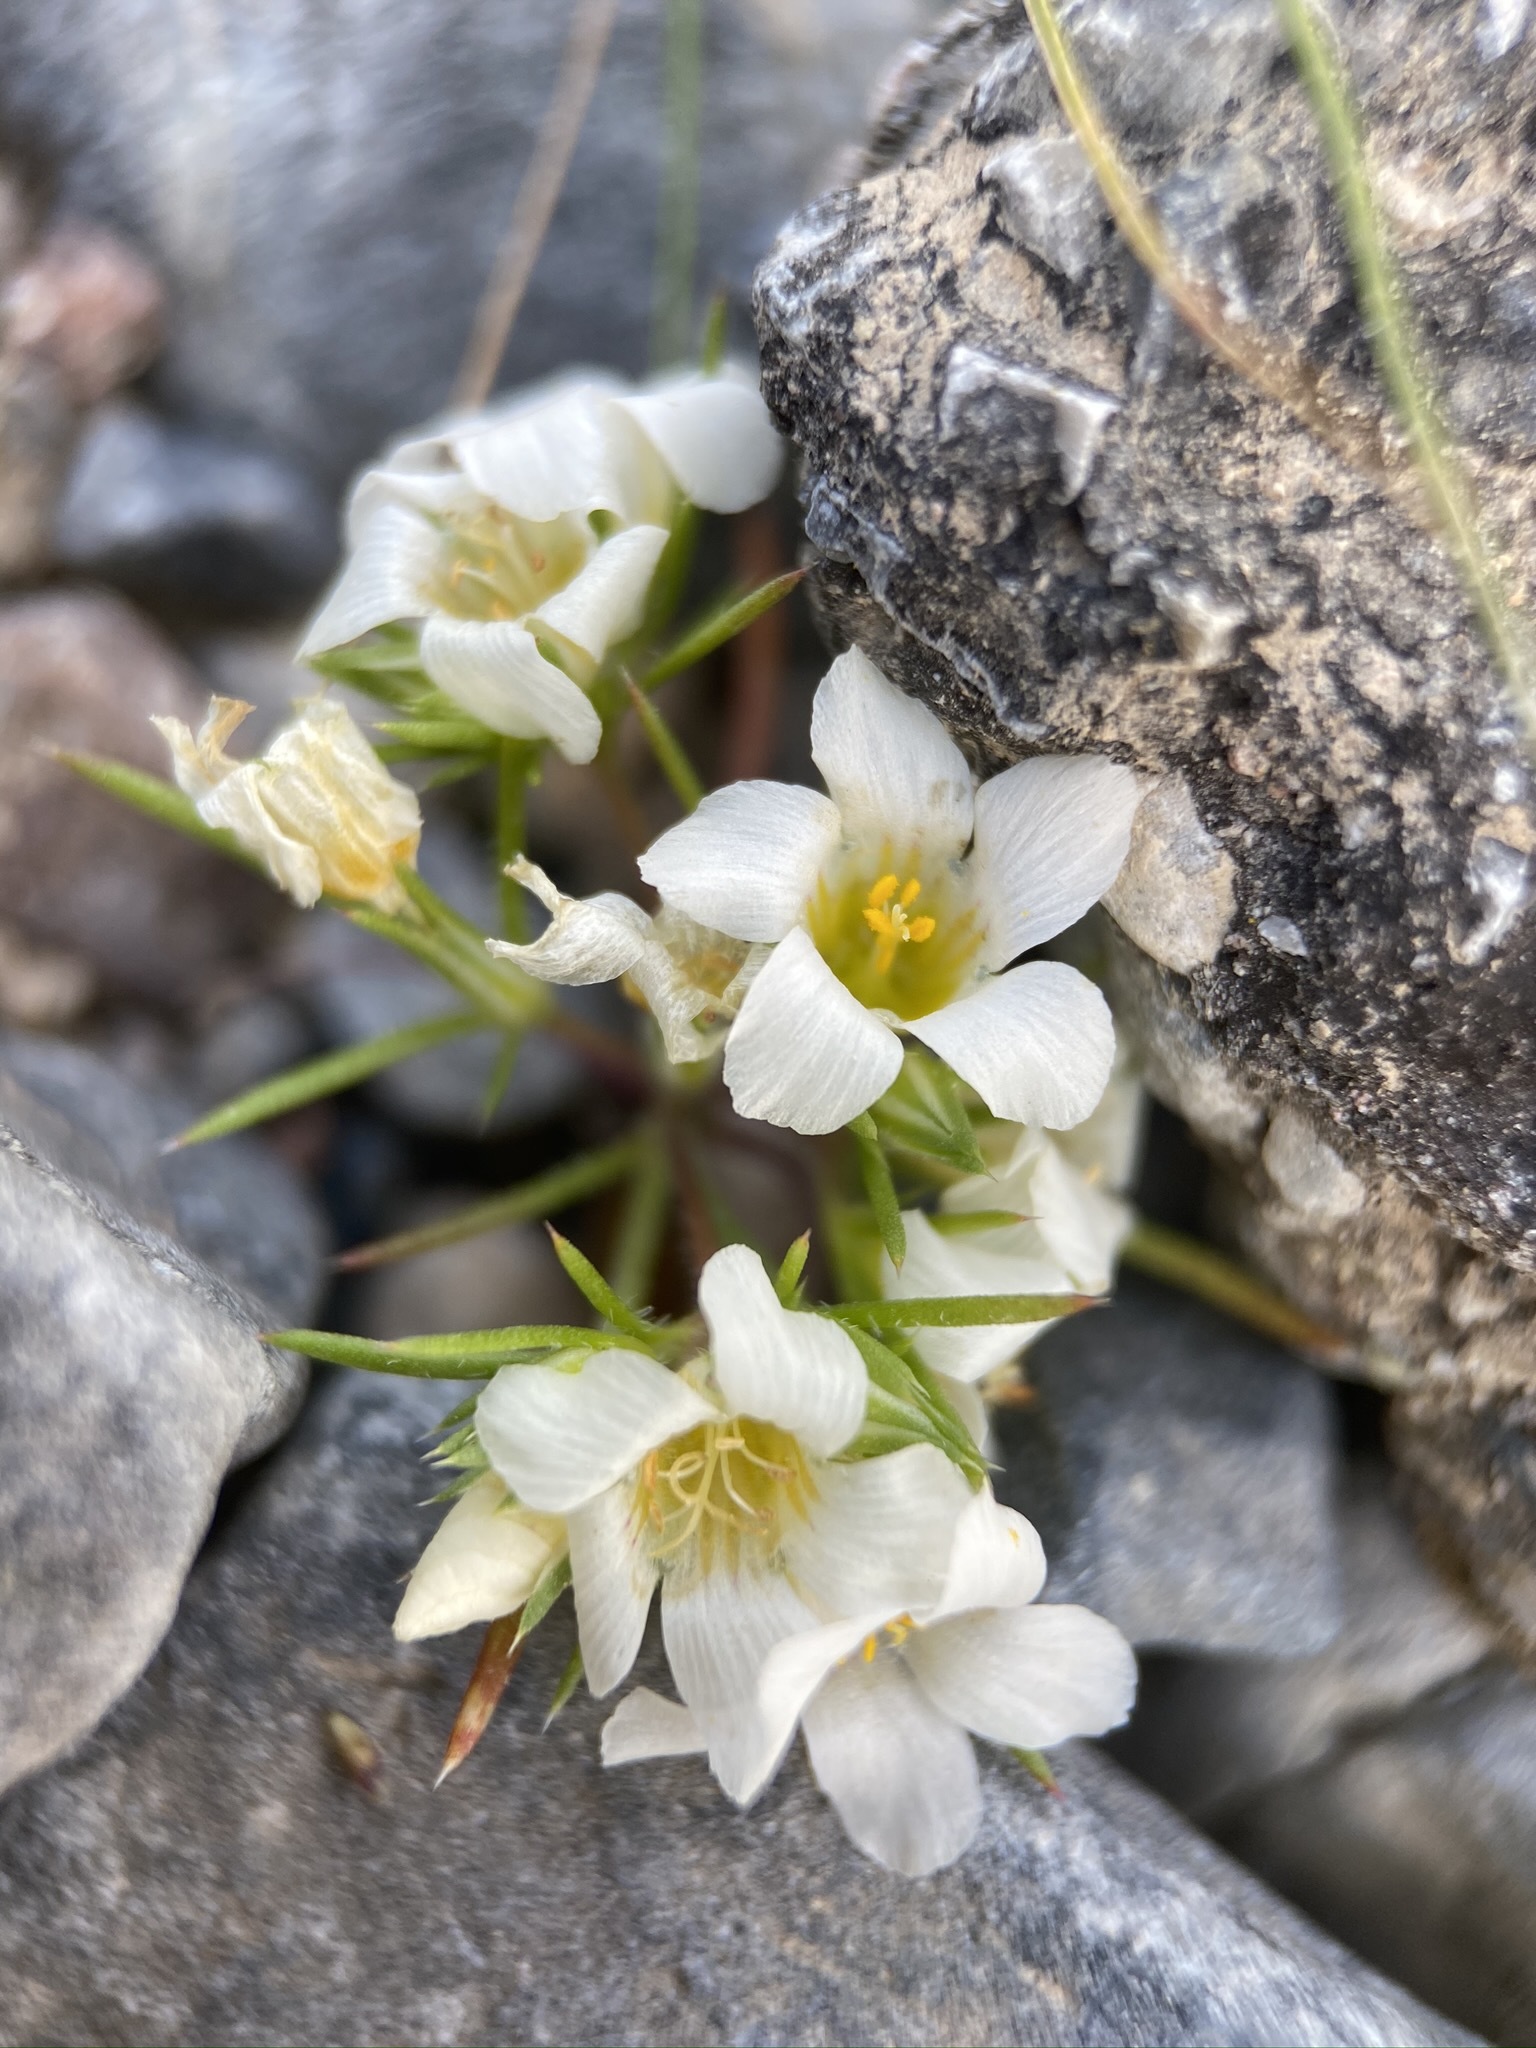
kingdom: Plantae
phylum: Tracheophyta
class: Magnoliopsida
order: Ericales
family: Polemoniaceae
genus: Linanthus
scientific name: Linanthus demissus
